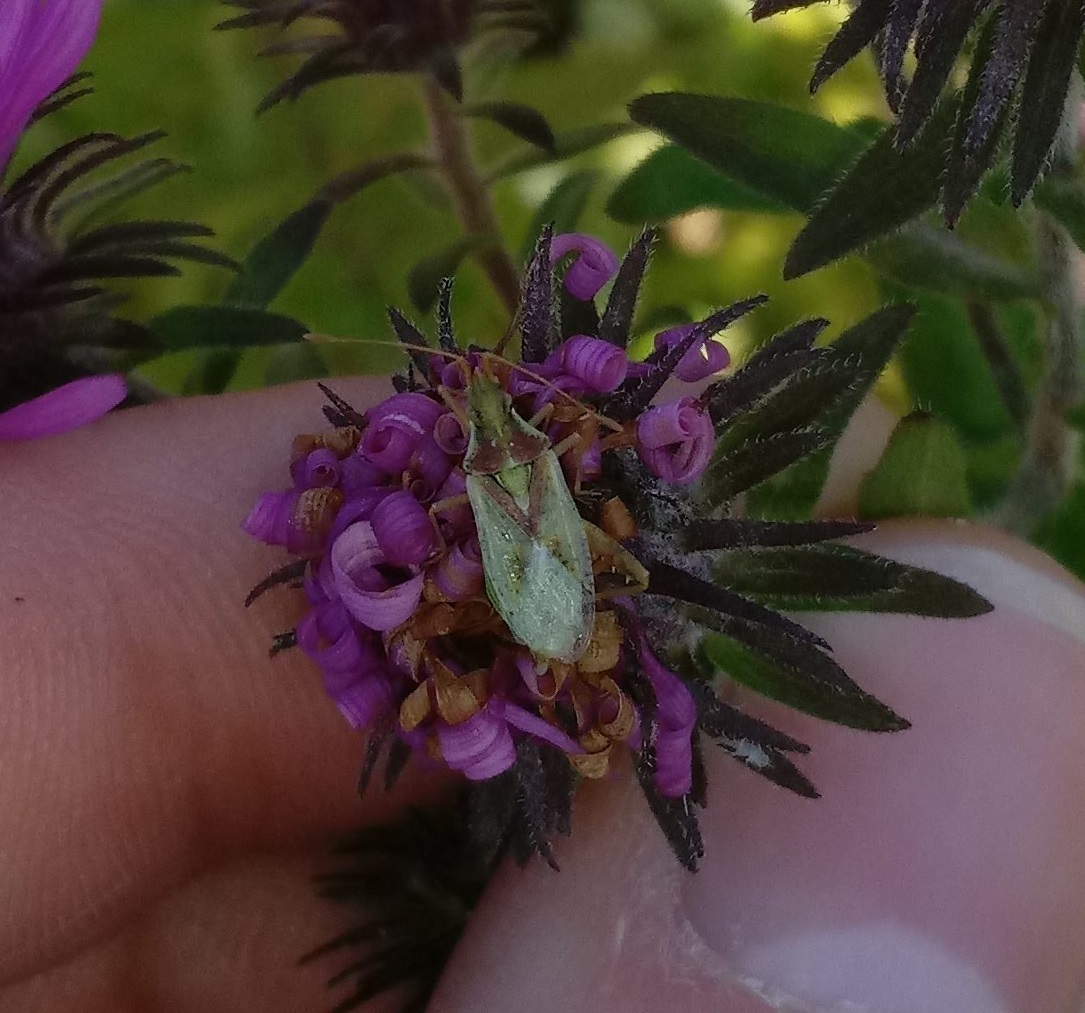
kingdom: Animalia
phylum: Arthropoda
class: Insecta
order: Hemiptera
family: Rhopalidae
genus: Harmostes
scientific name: Harmostes reflexulus
